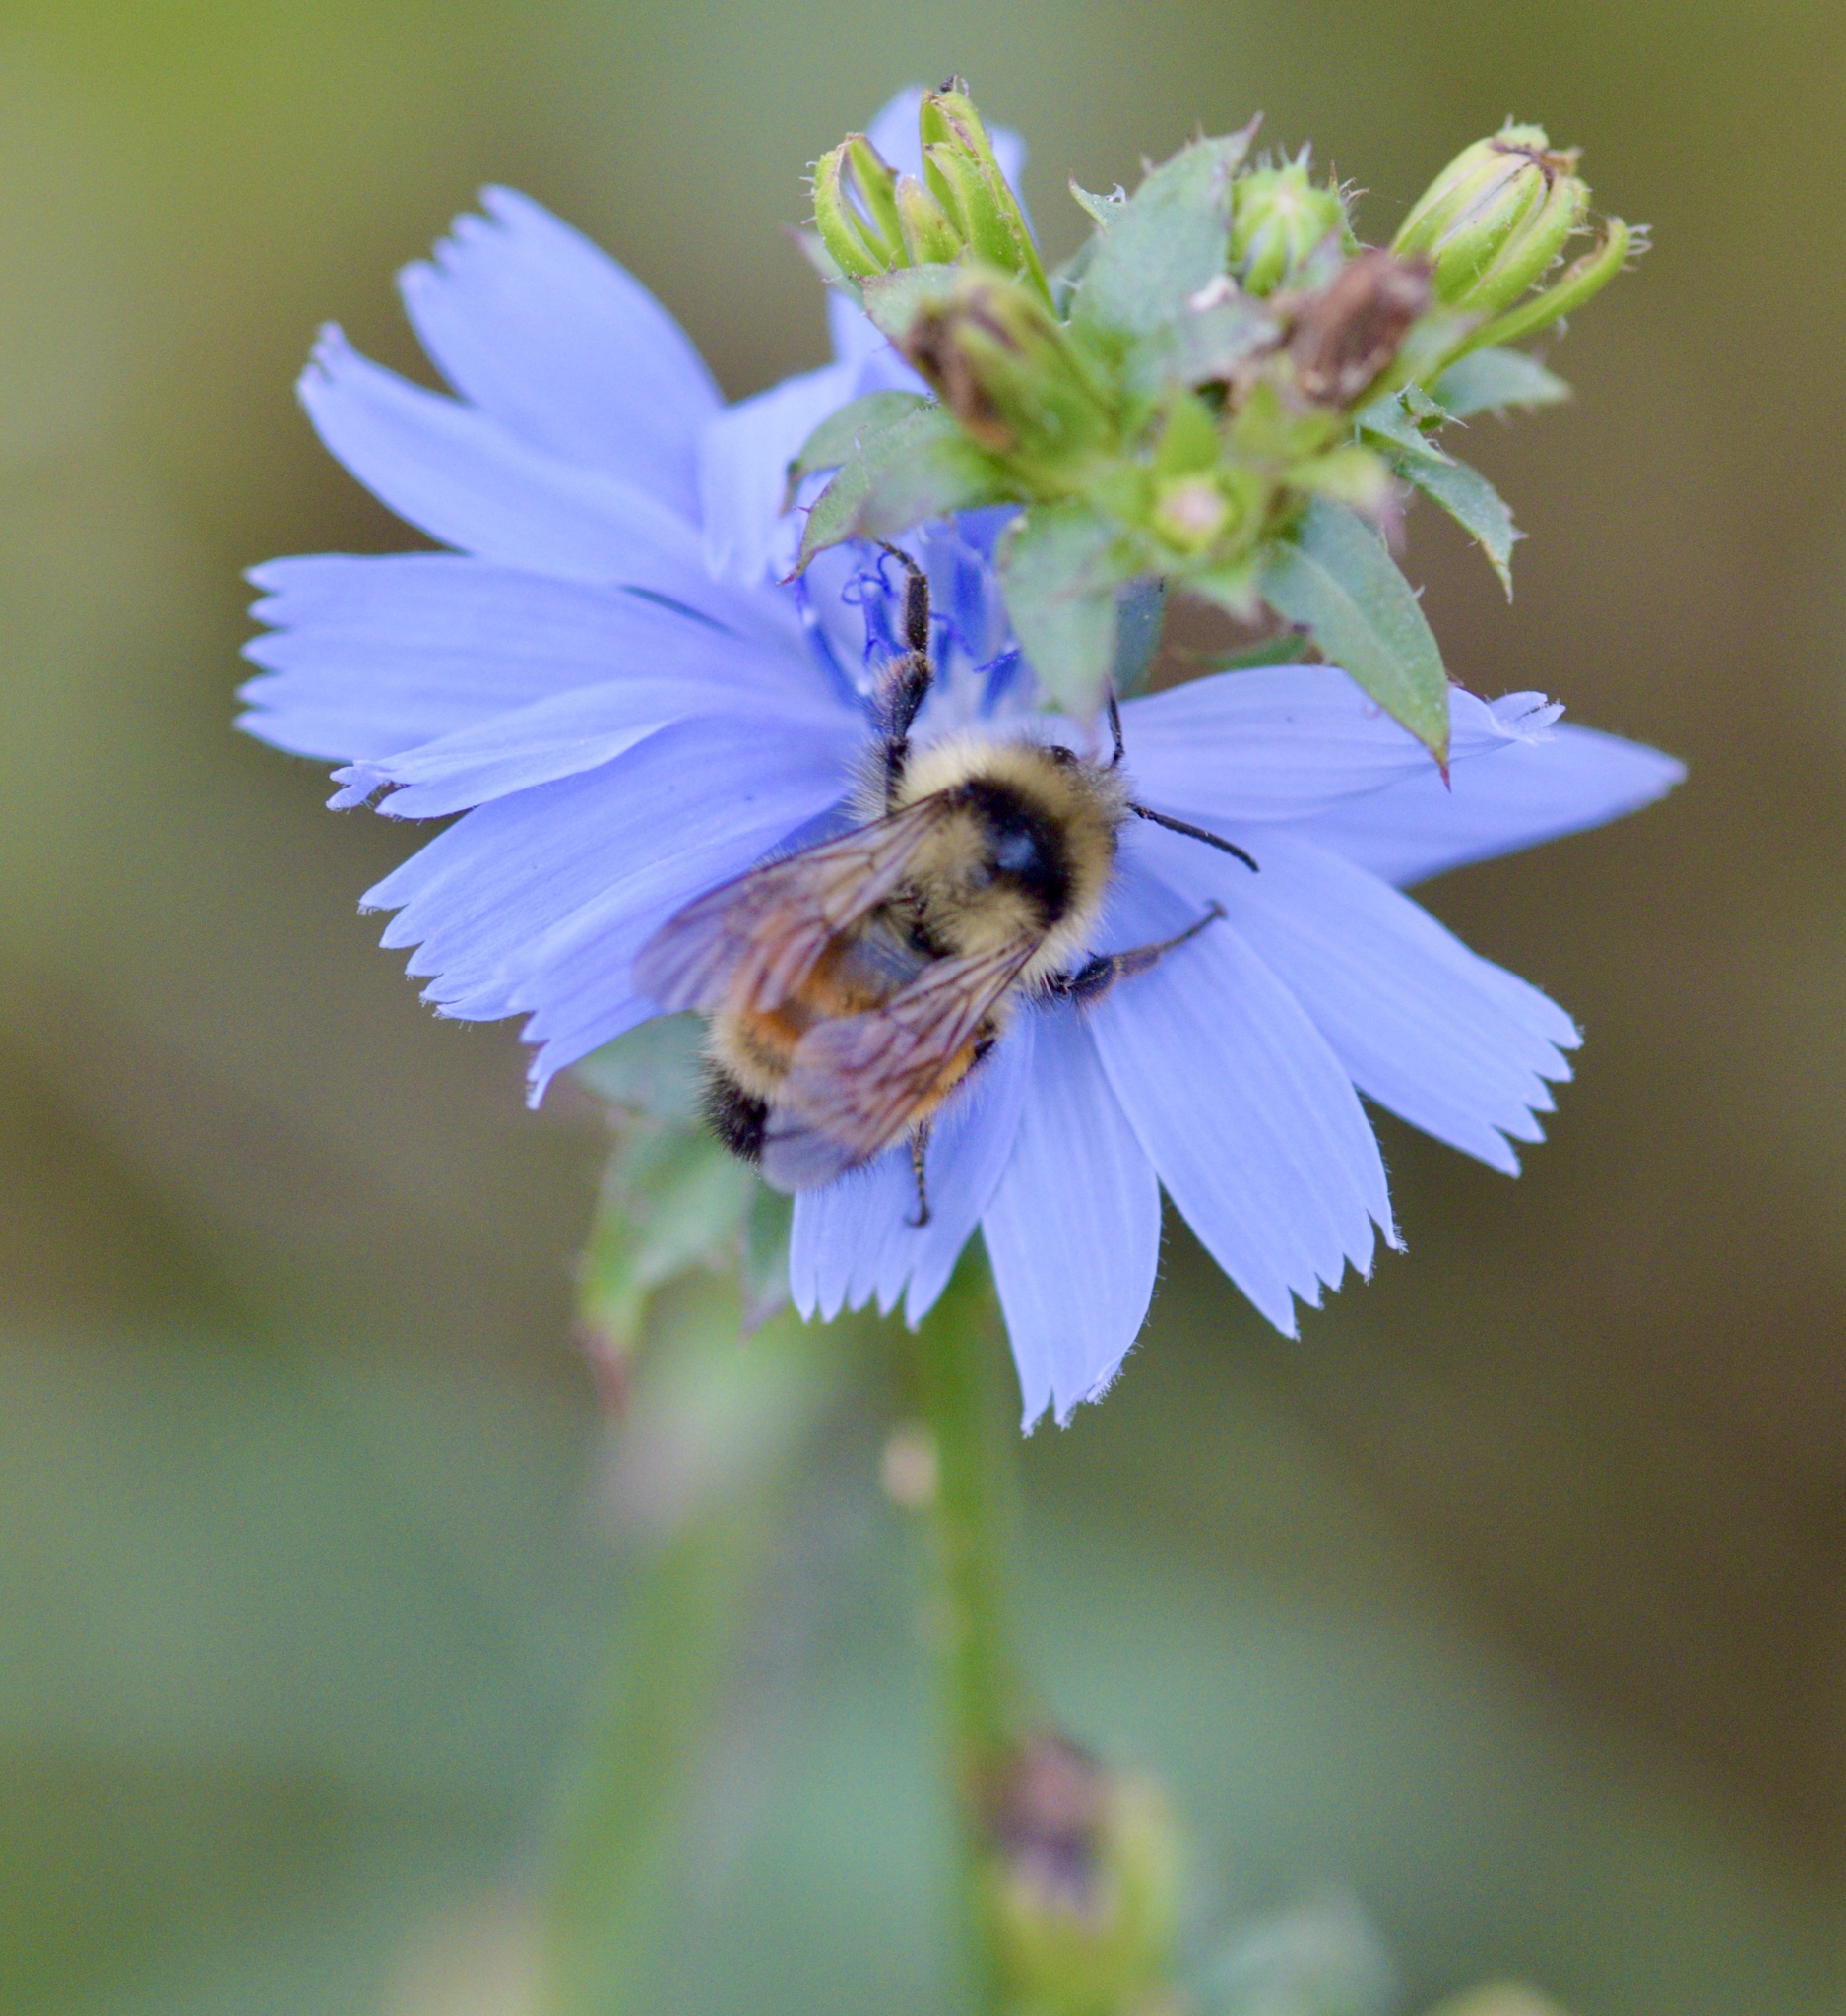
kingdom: Animalia
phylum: Arthropoda
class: Insecta
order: Hymenoptera
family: Apidae
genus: Bombus
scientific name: Bombus ternarius
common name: Tri-colored bumble bee
